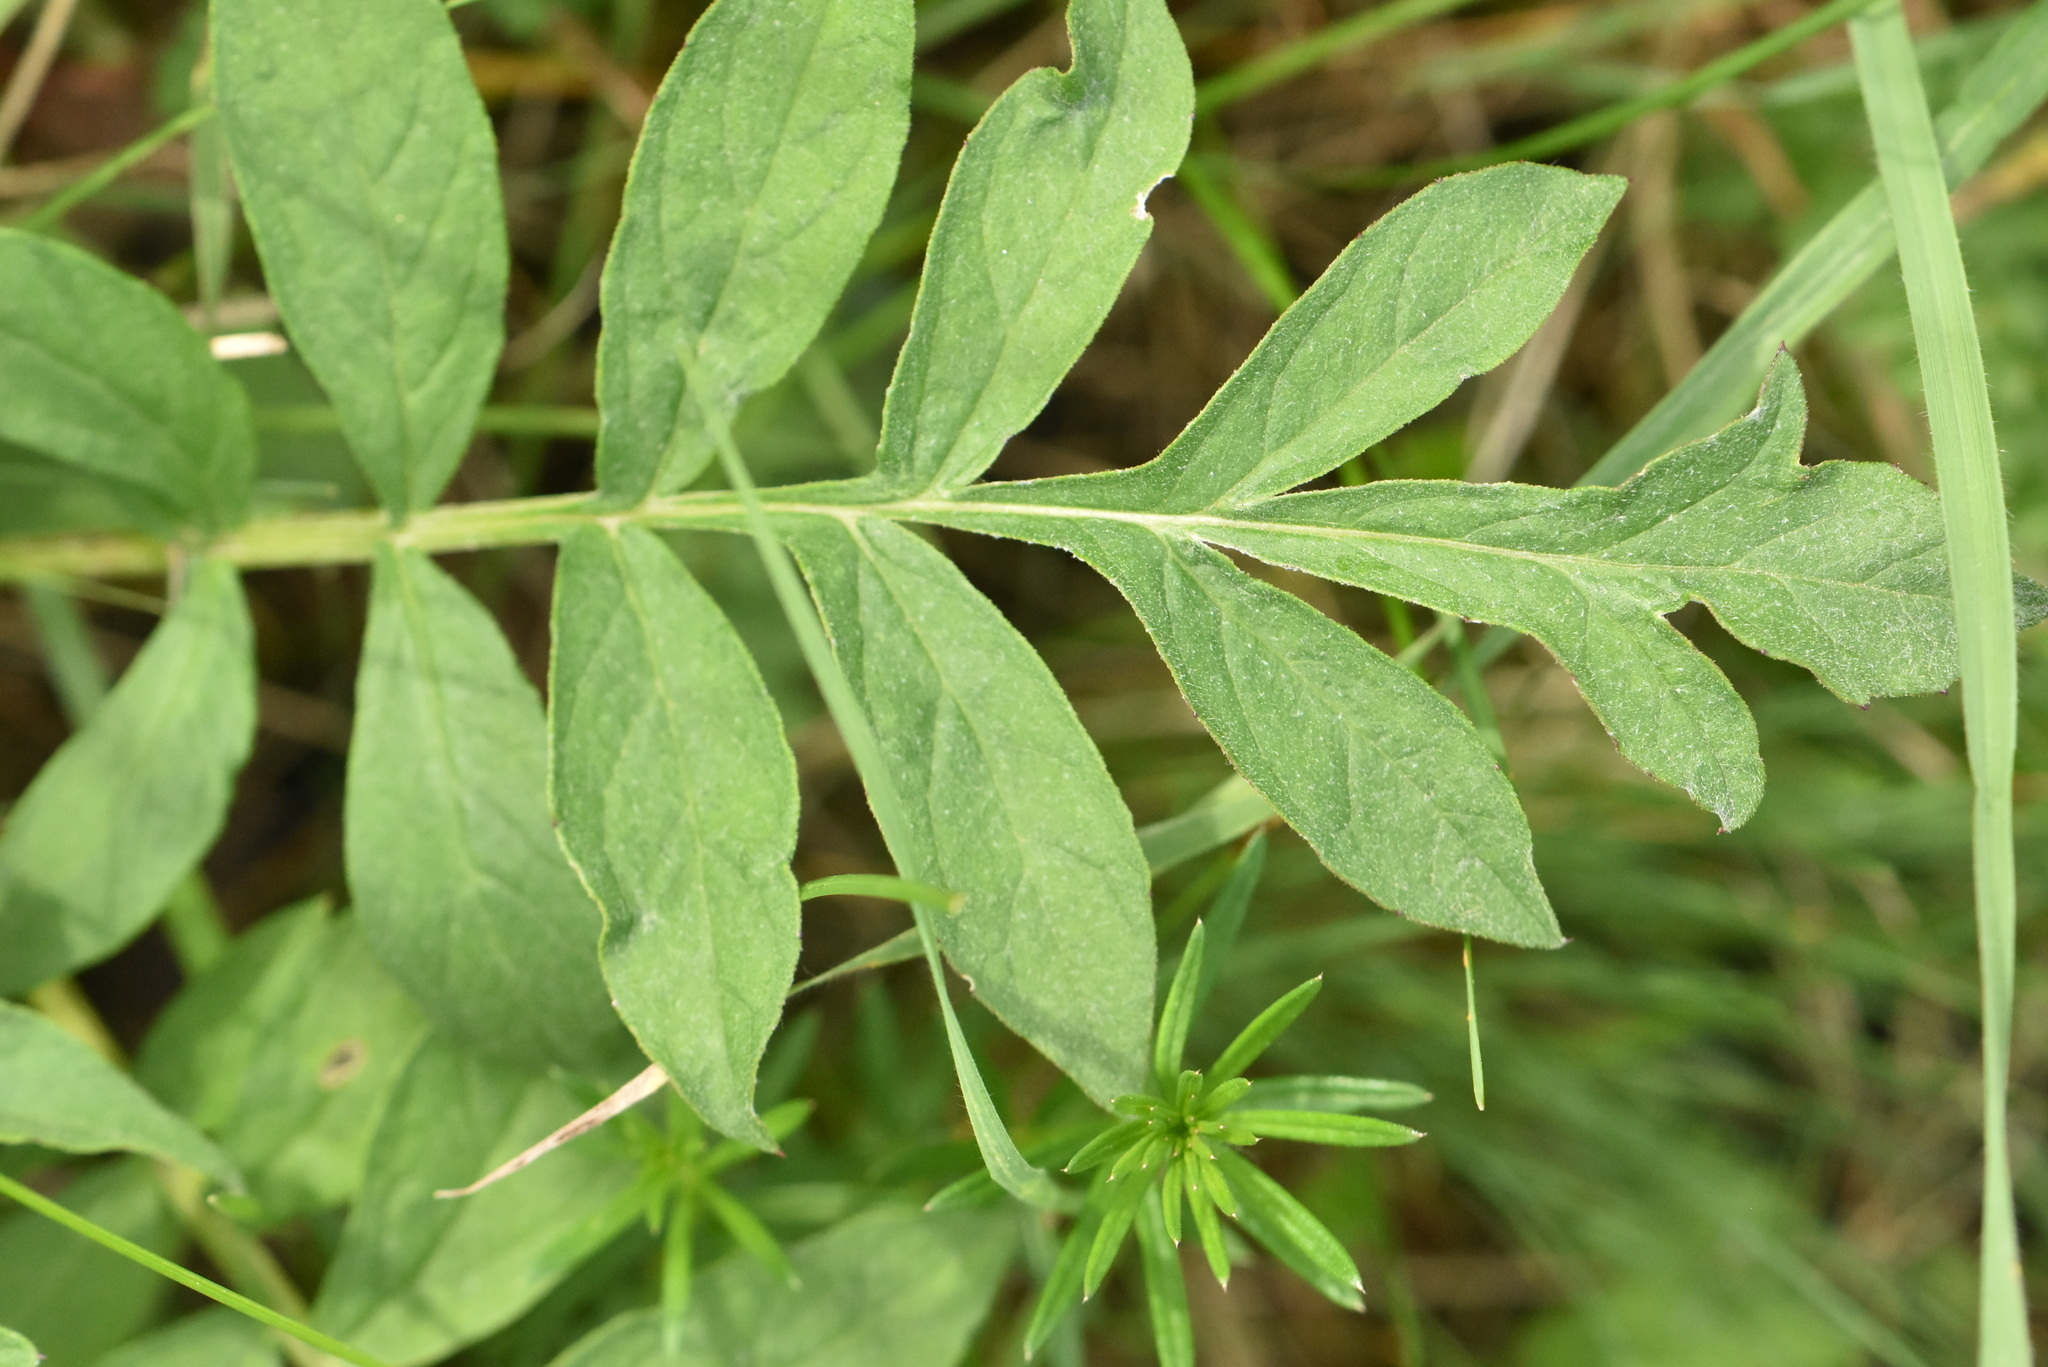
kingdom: Plantae
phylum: Tracheophyta
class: Magnoliopsida
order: Asterales
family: Asteraceae
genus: Psephellus
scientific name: Psephellus dealbatus
